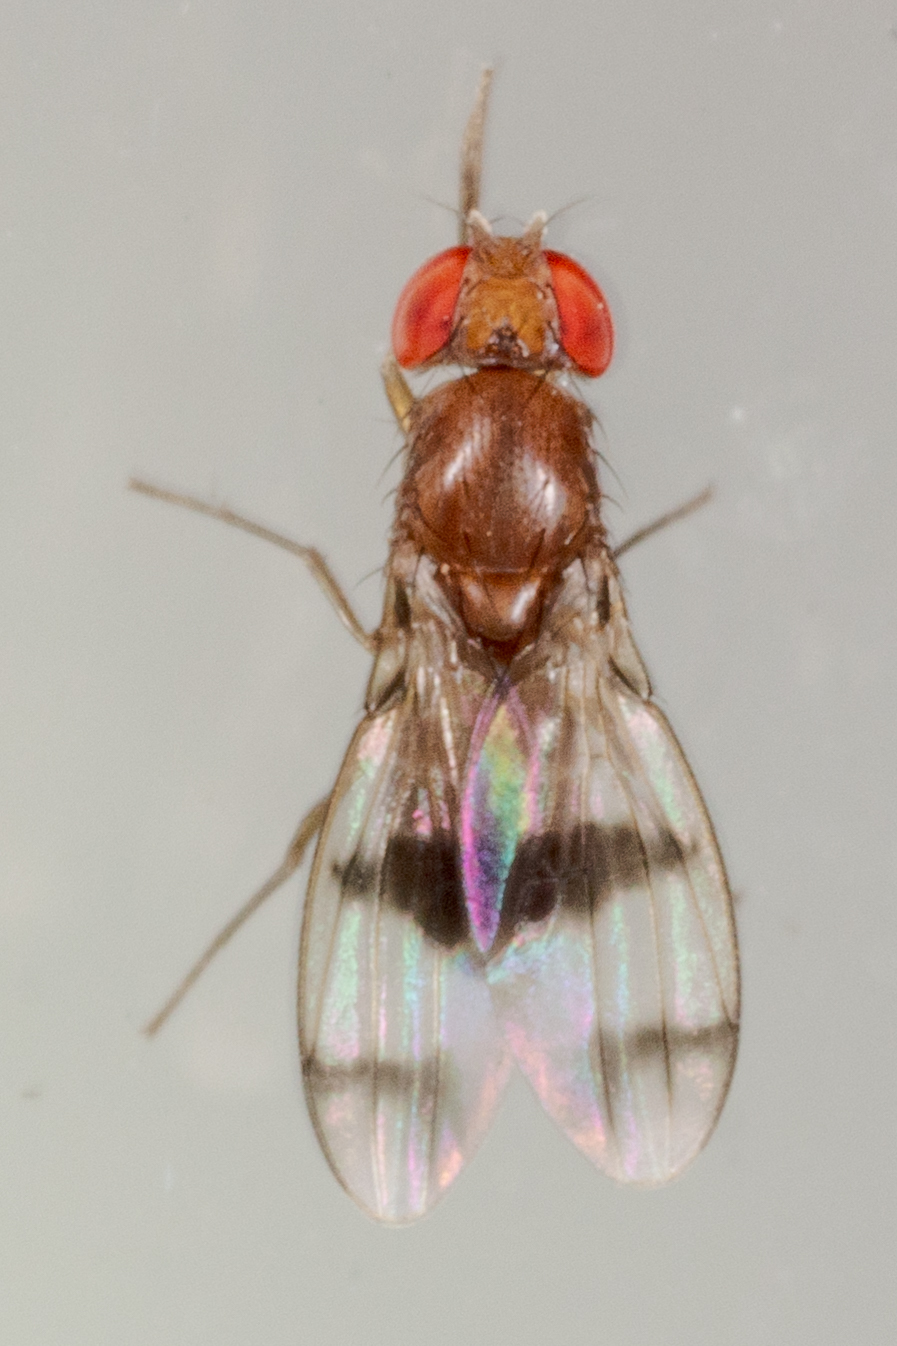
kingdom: Animalia
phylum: Arthropoda
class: Insecta
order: Diptera
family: Drosophilidae
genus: Chymomyza
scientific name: Chymomyza amoena
